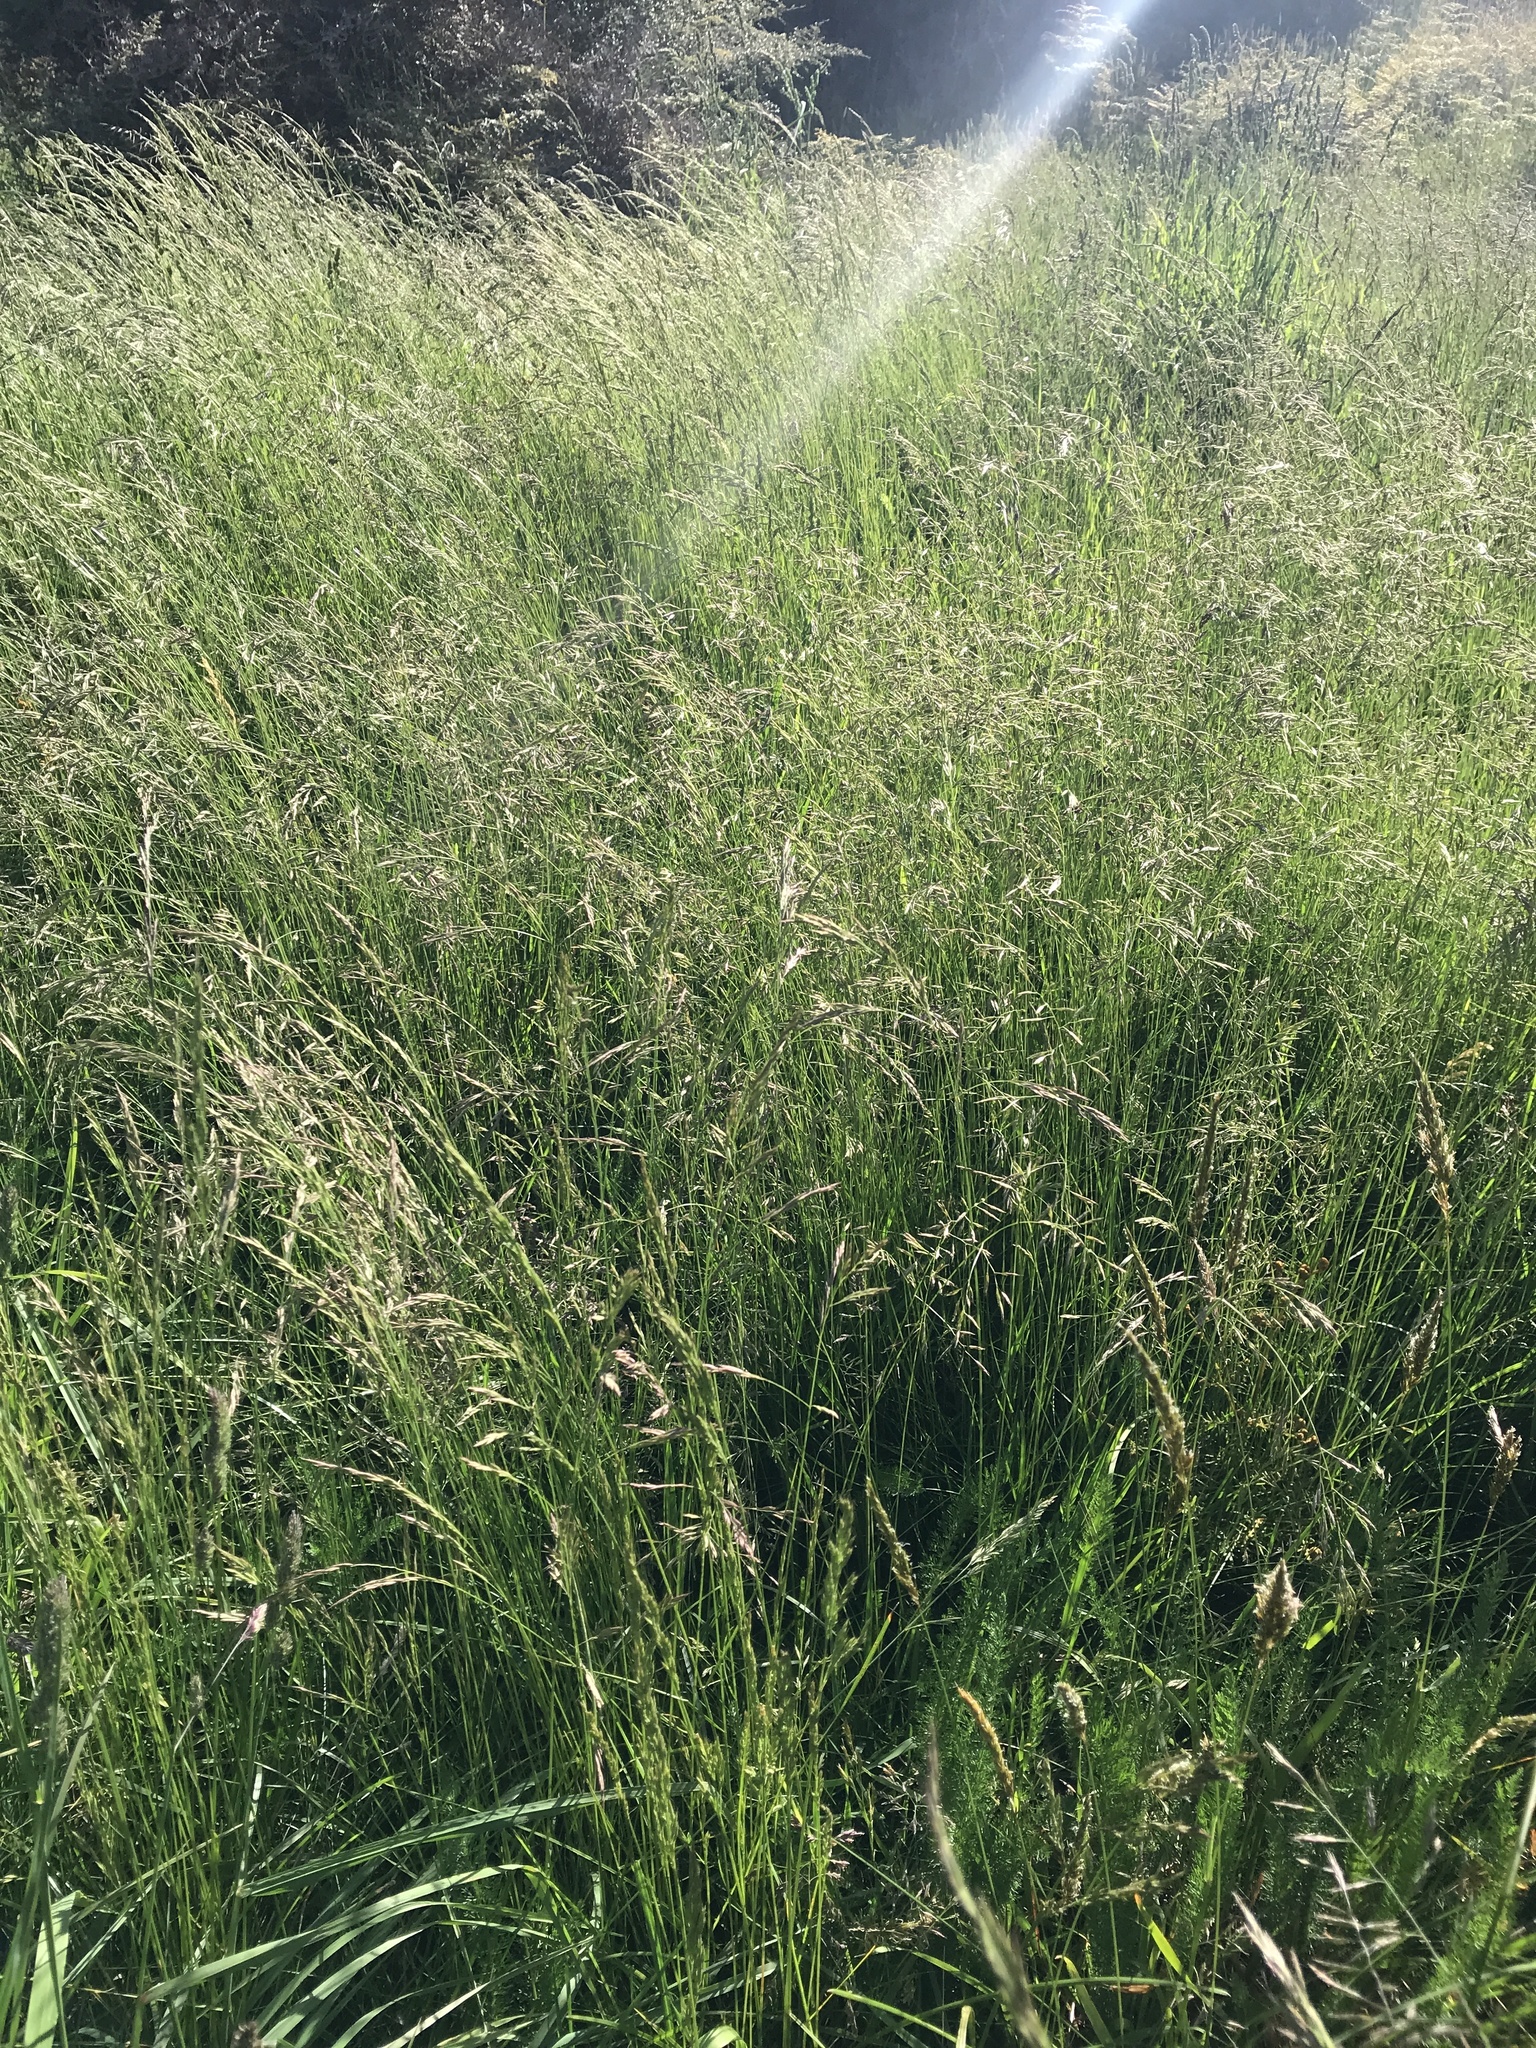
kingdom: Plantae
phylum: Tracheophyta
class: Liliopsida
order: Poales
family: Poaceae
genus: Lolium
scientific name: Lolium arundinaceum
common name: Reed fescue
